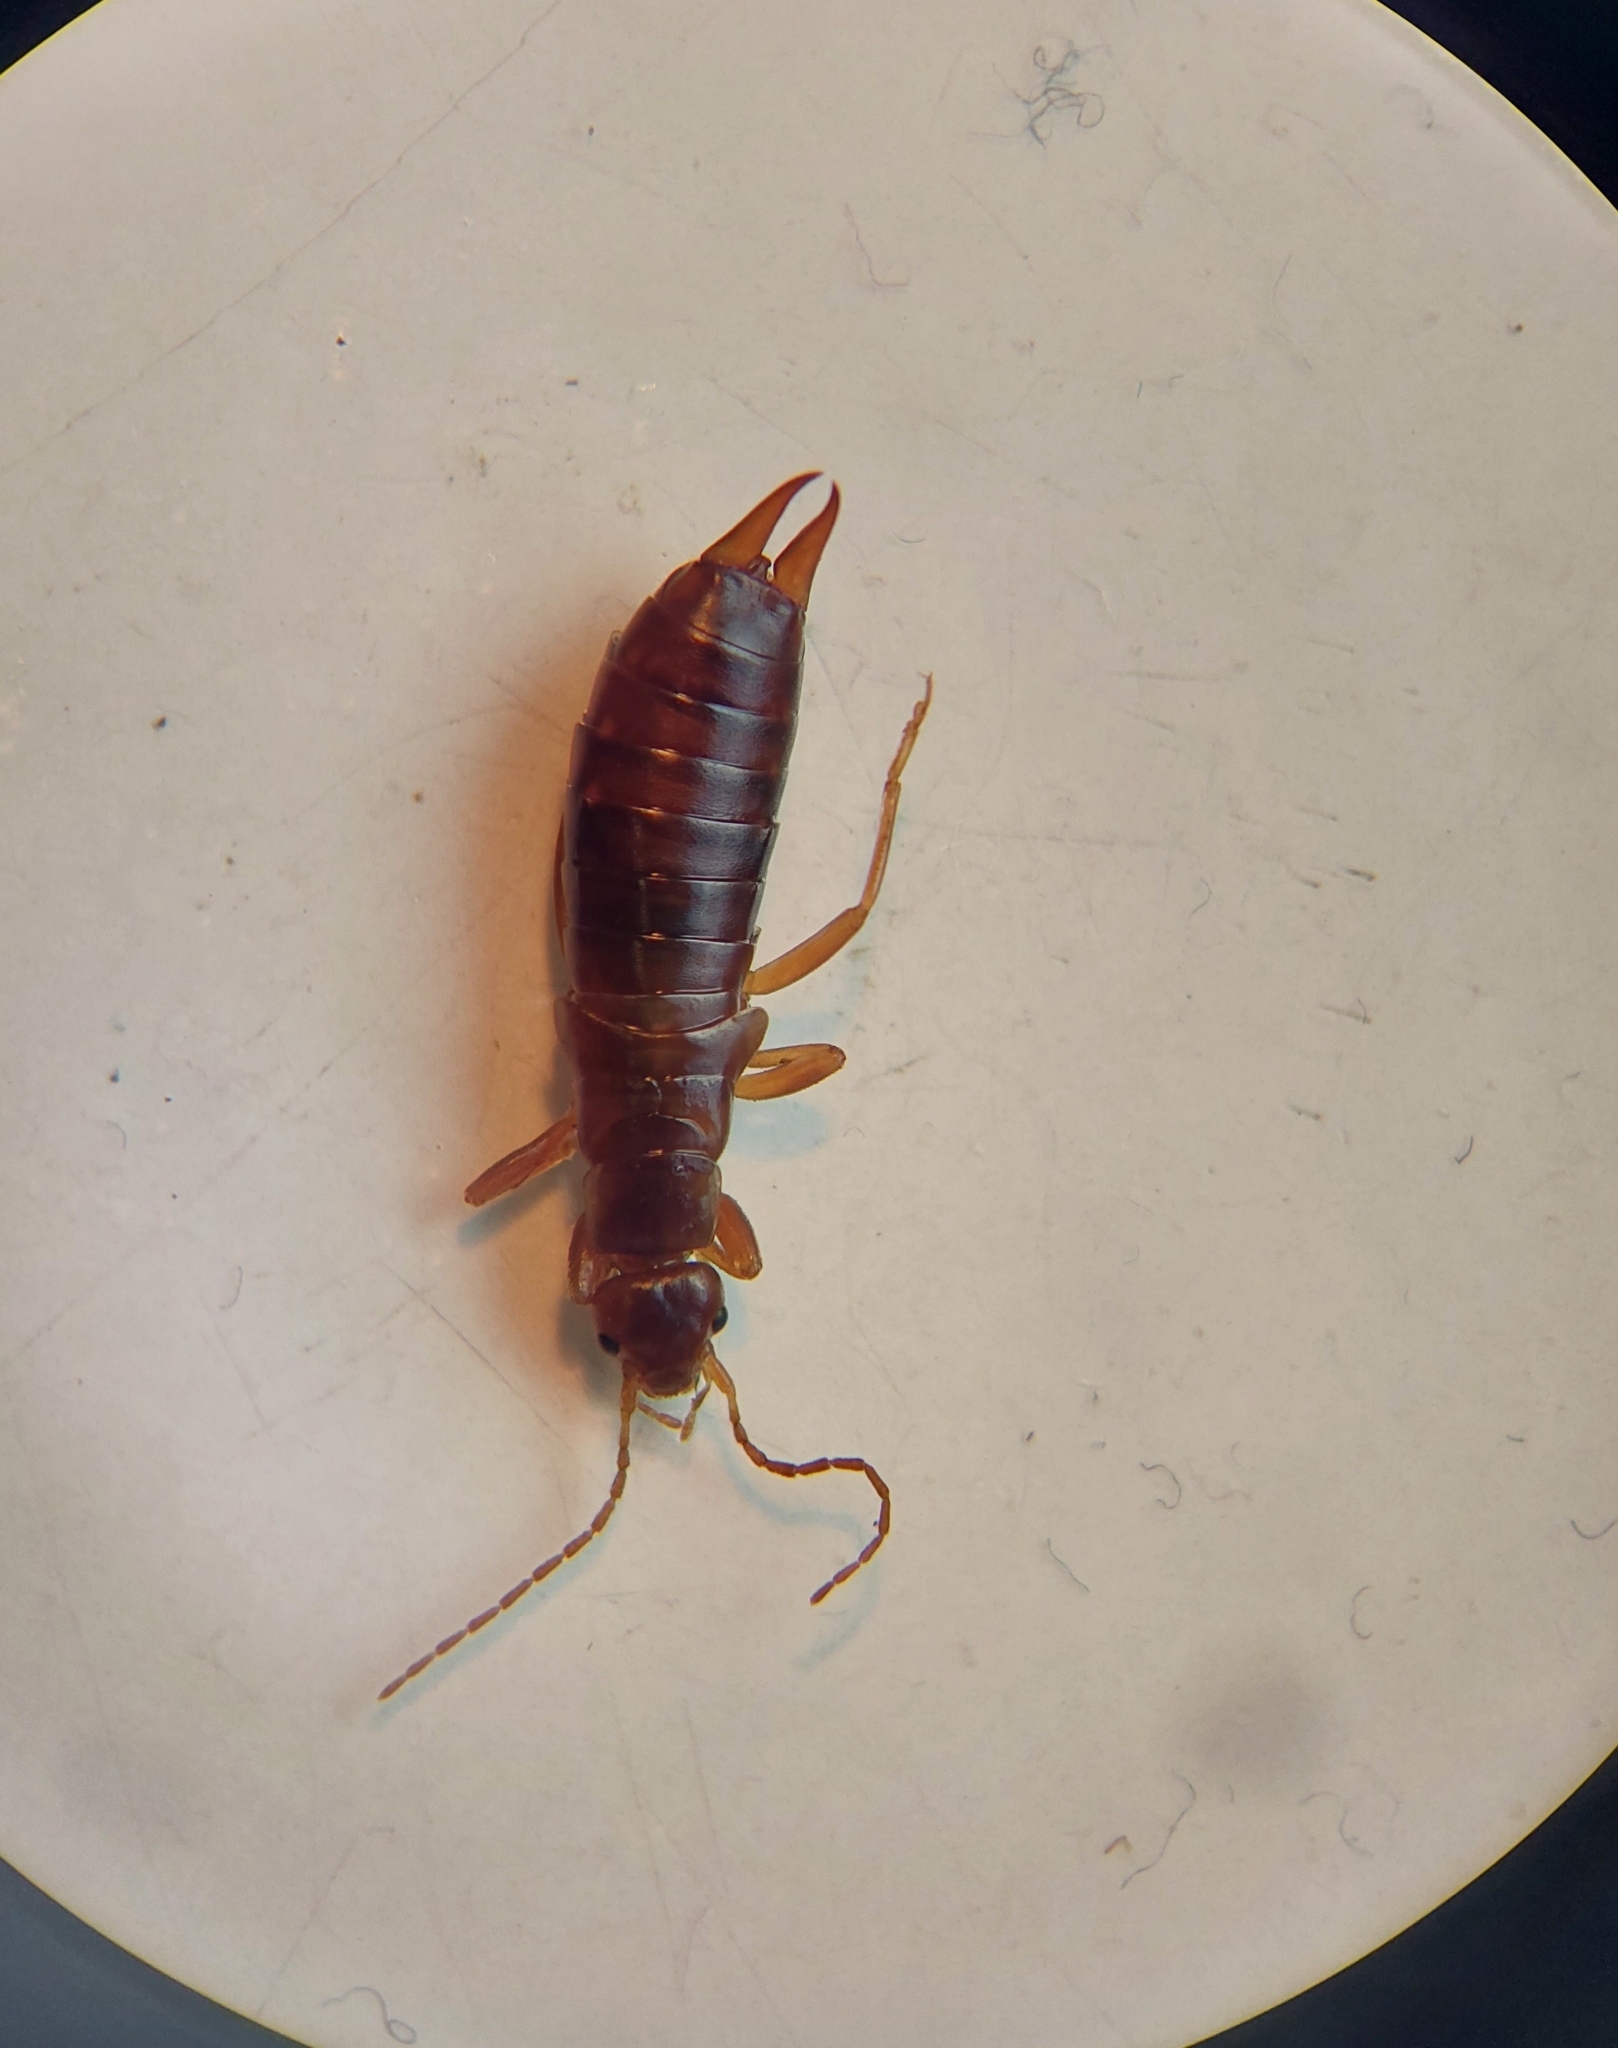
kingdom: Animalia
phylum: Arthropoda
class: Insecta
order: Dermaptera
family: Forficulidae
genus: Chelidurella
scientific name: Chelidurella acanthopygia
